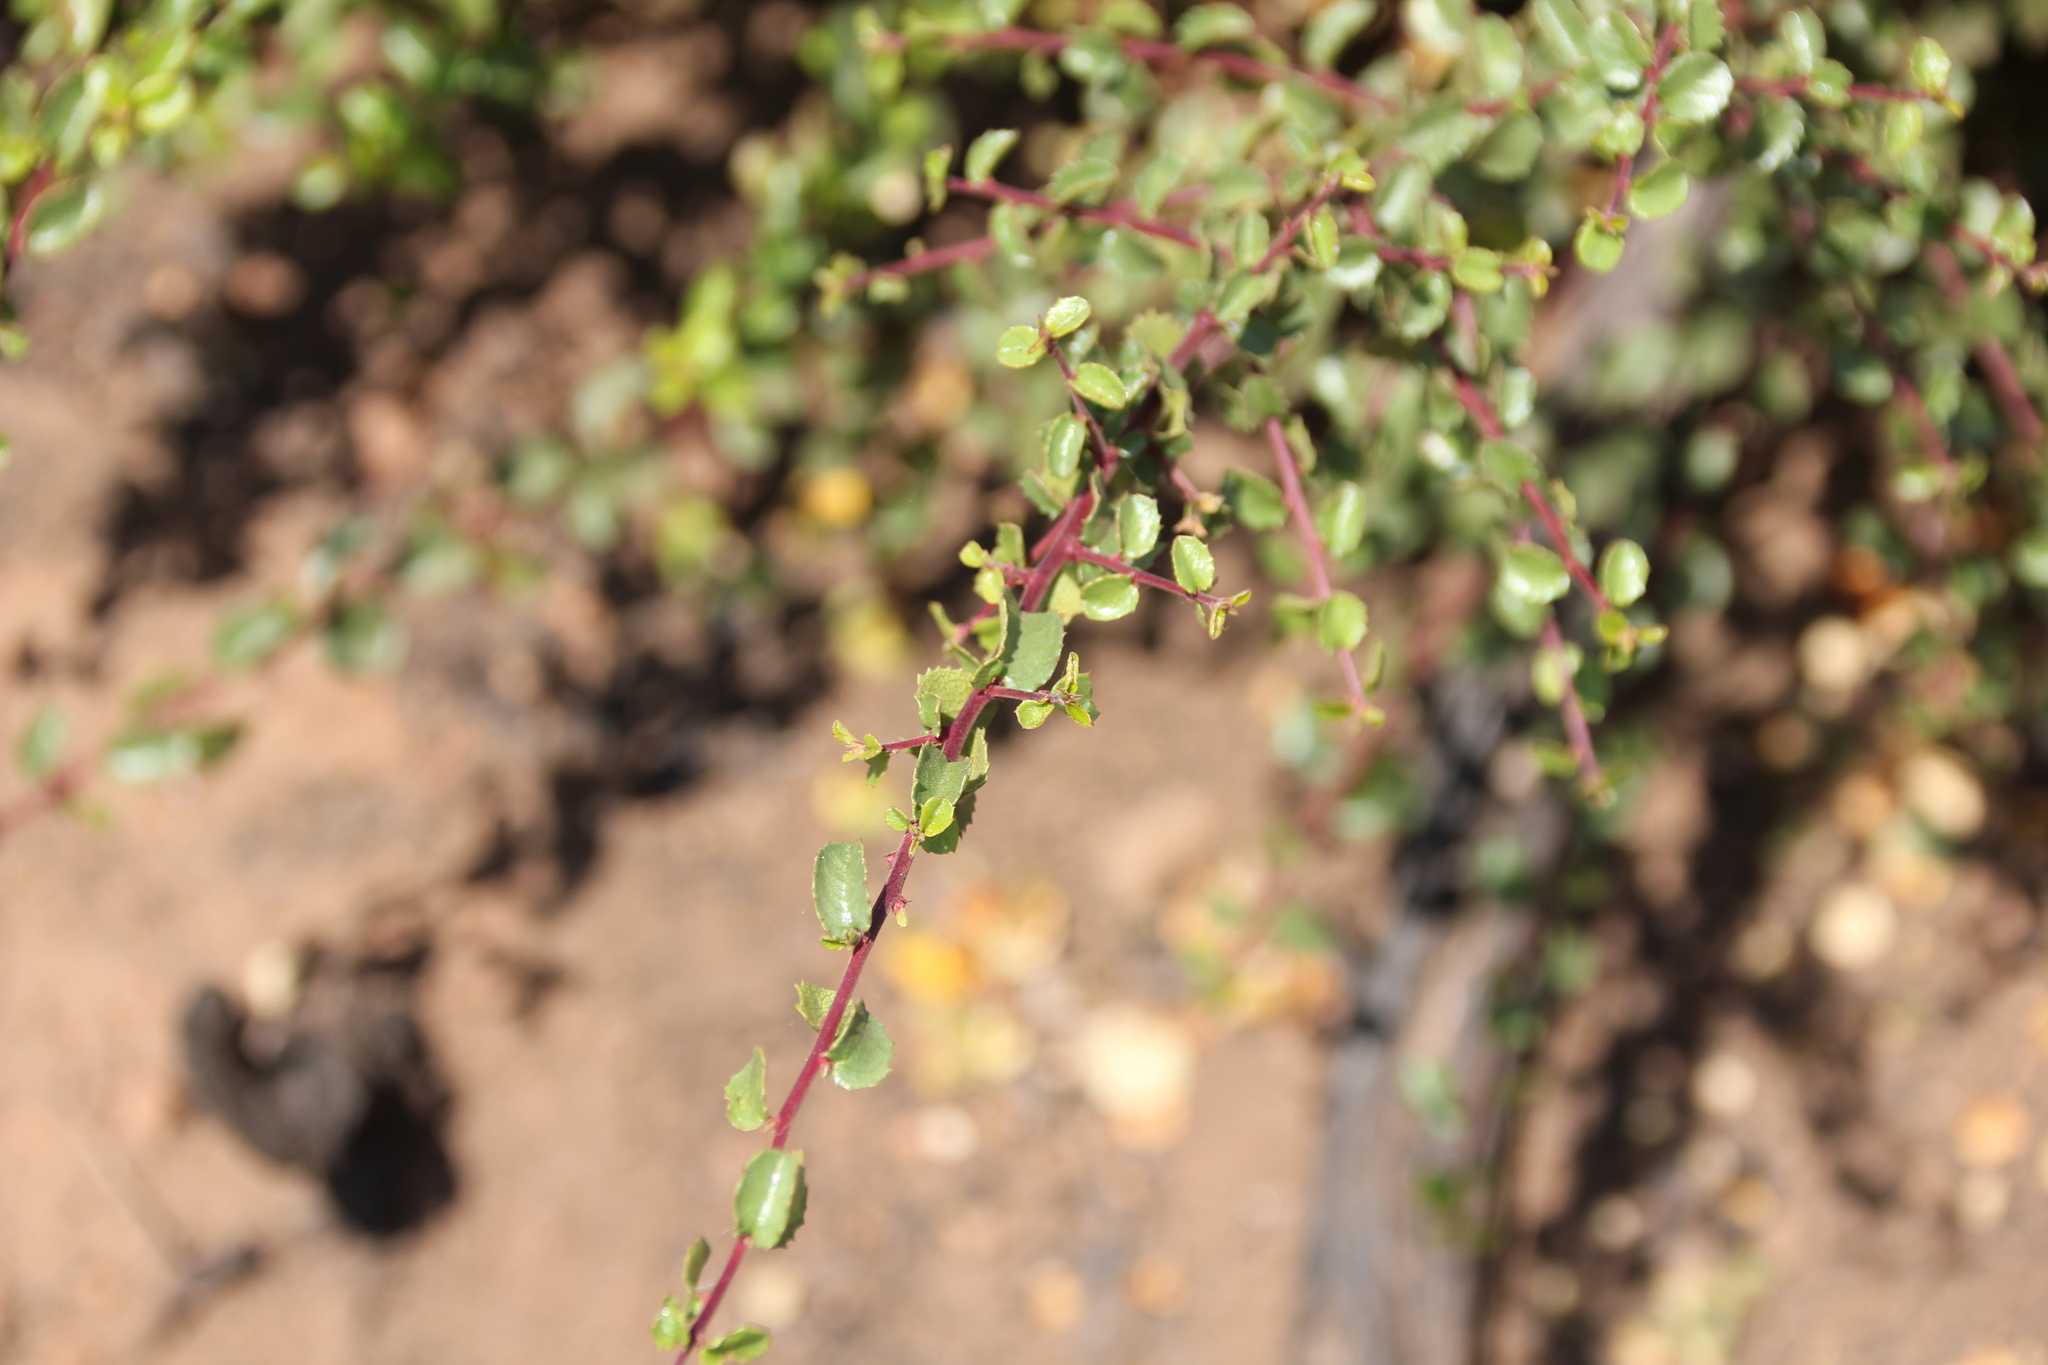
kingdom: Plantae
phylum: Tracheophyta
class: Magnoliopsida
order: Rosales
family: Rhamnaceae
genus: Endotropis
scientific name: Endotropis crocea
